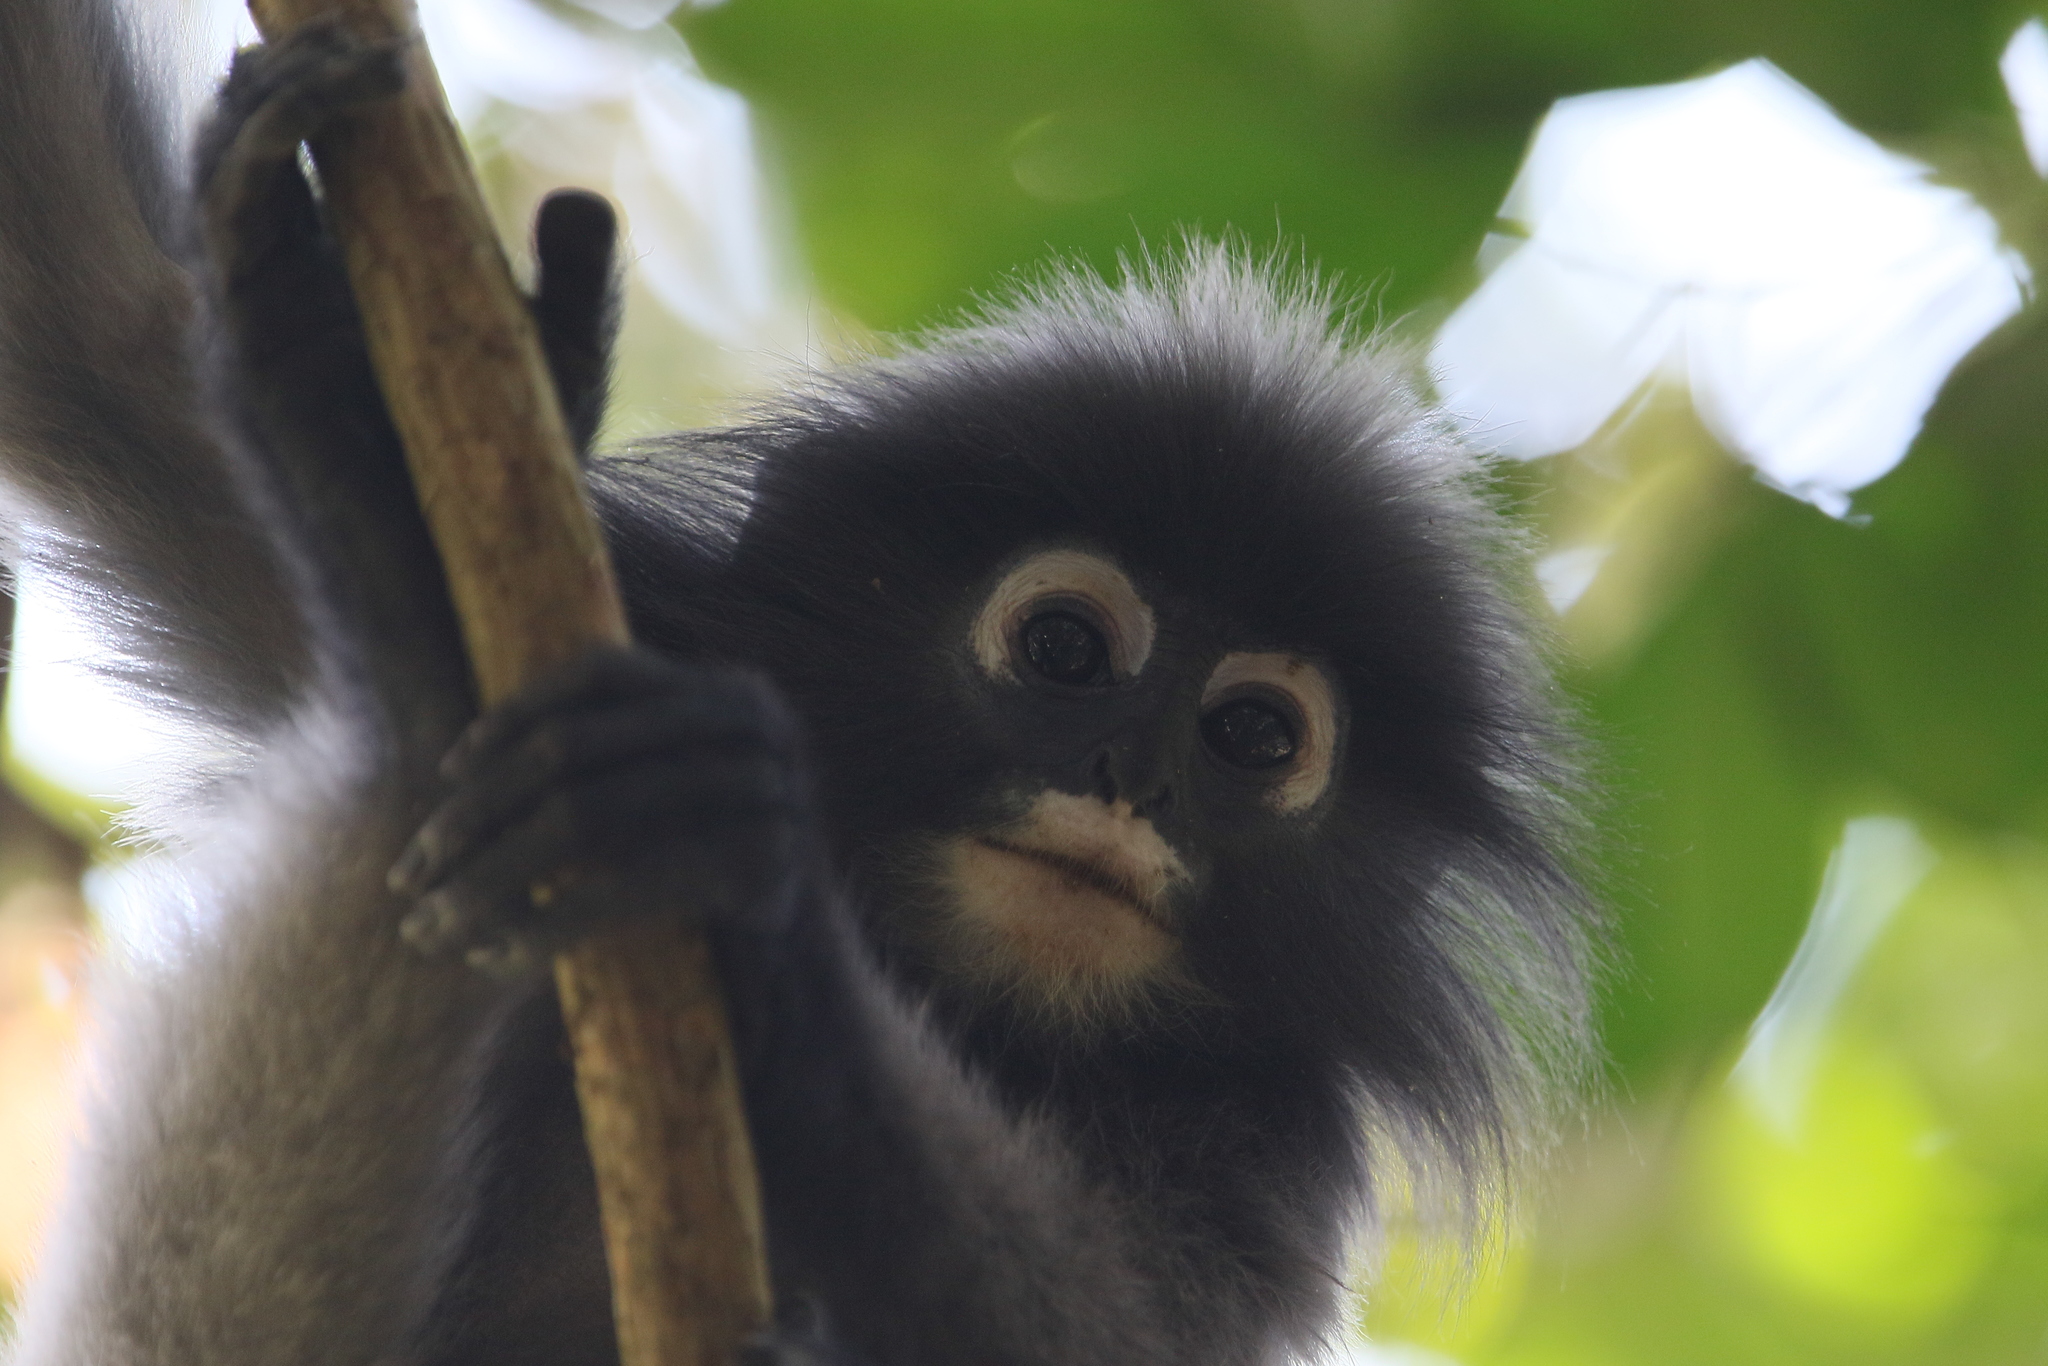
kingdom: Animalia
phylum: Chordata
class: Mammalia
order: Primates
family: Cercopithecidae
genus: Trachypithecus
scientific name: Trachypithecus obscurus
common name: Dusky leaf-monkey
